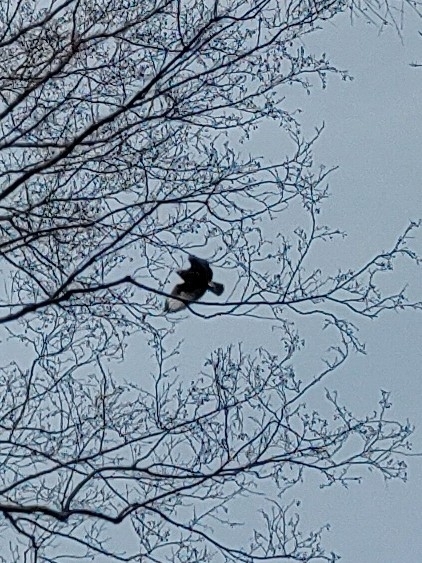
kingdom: Animalia
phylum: Chordata
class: Aves
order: Accipitriformes
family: Accipitridae
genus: Buteo
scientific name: Buteo buteo
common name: Common buzzard
